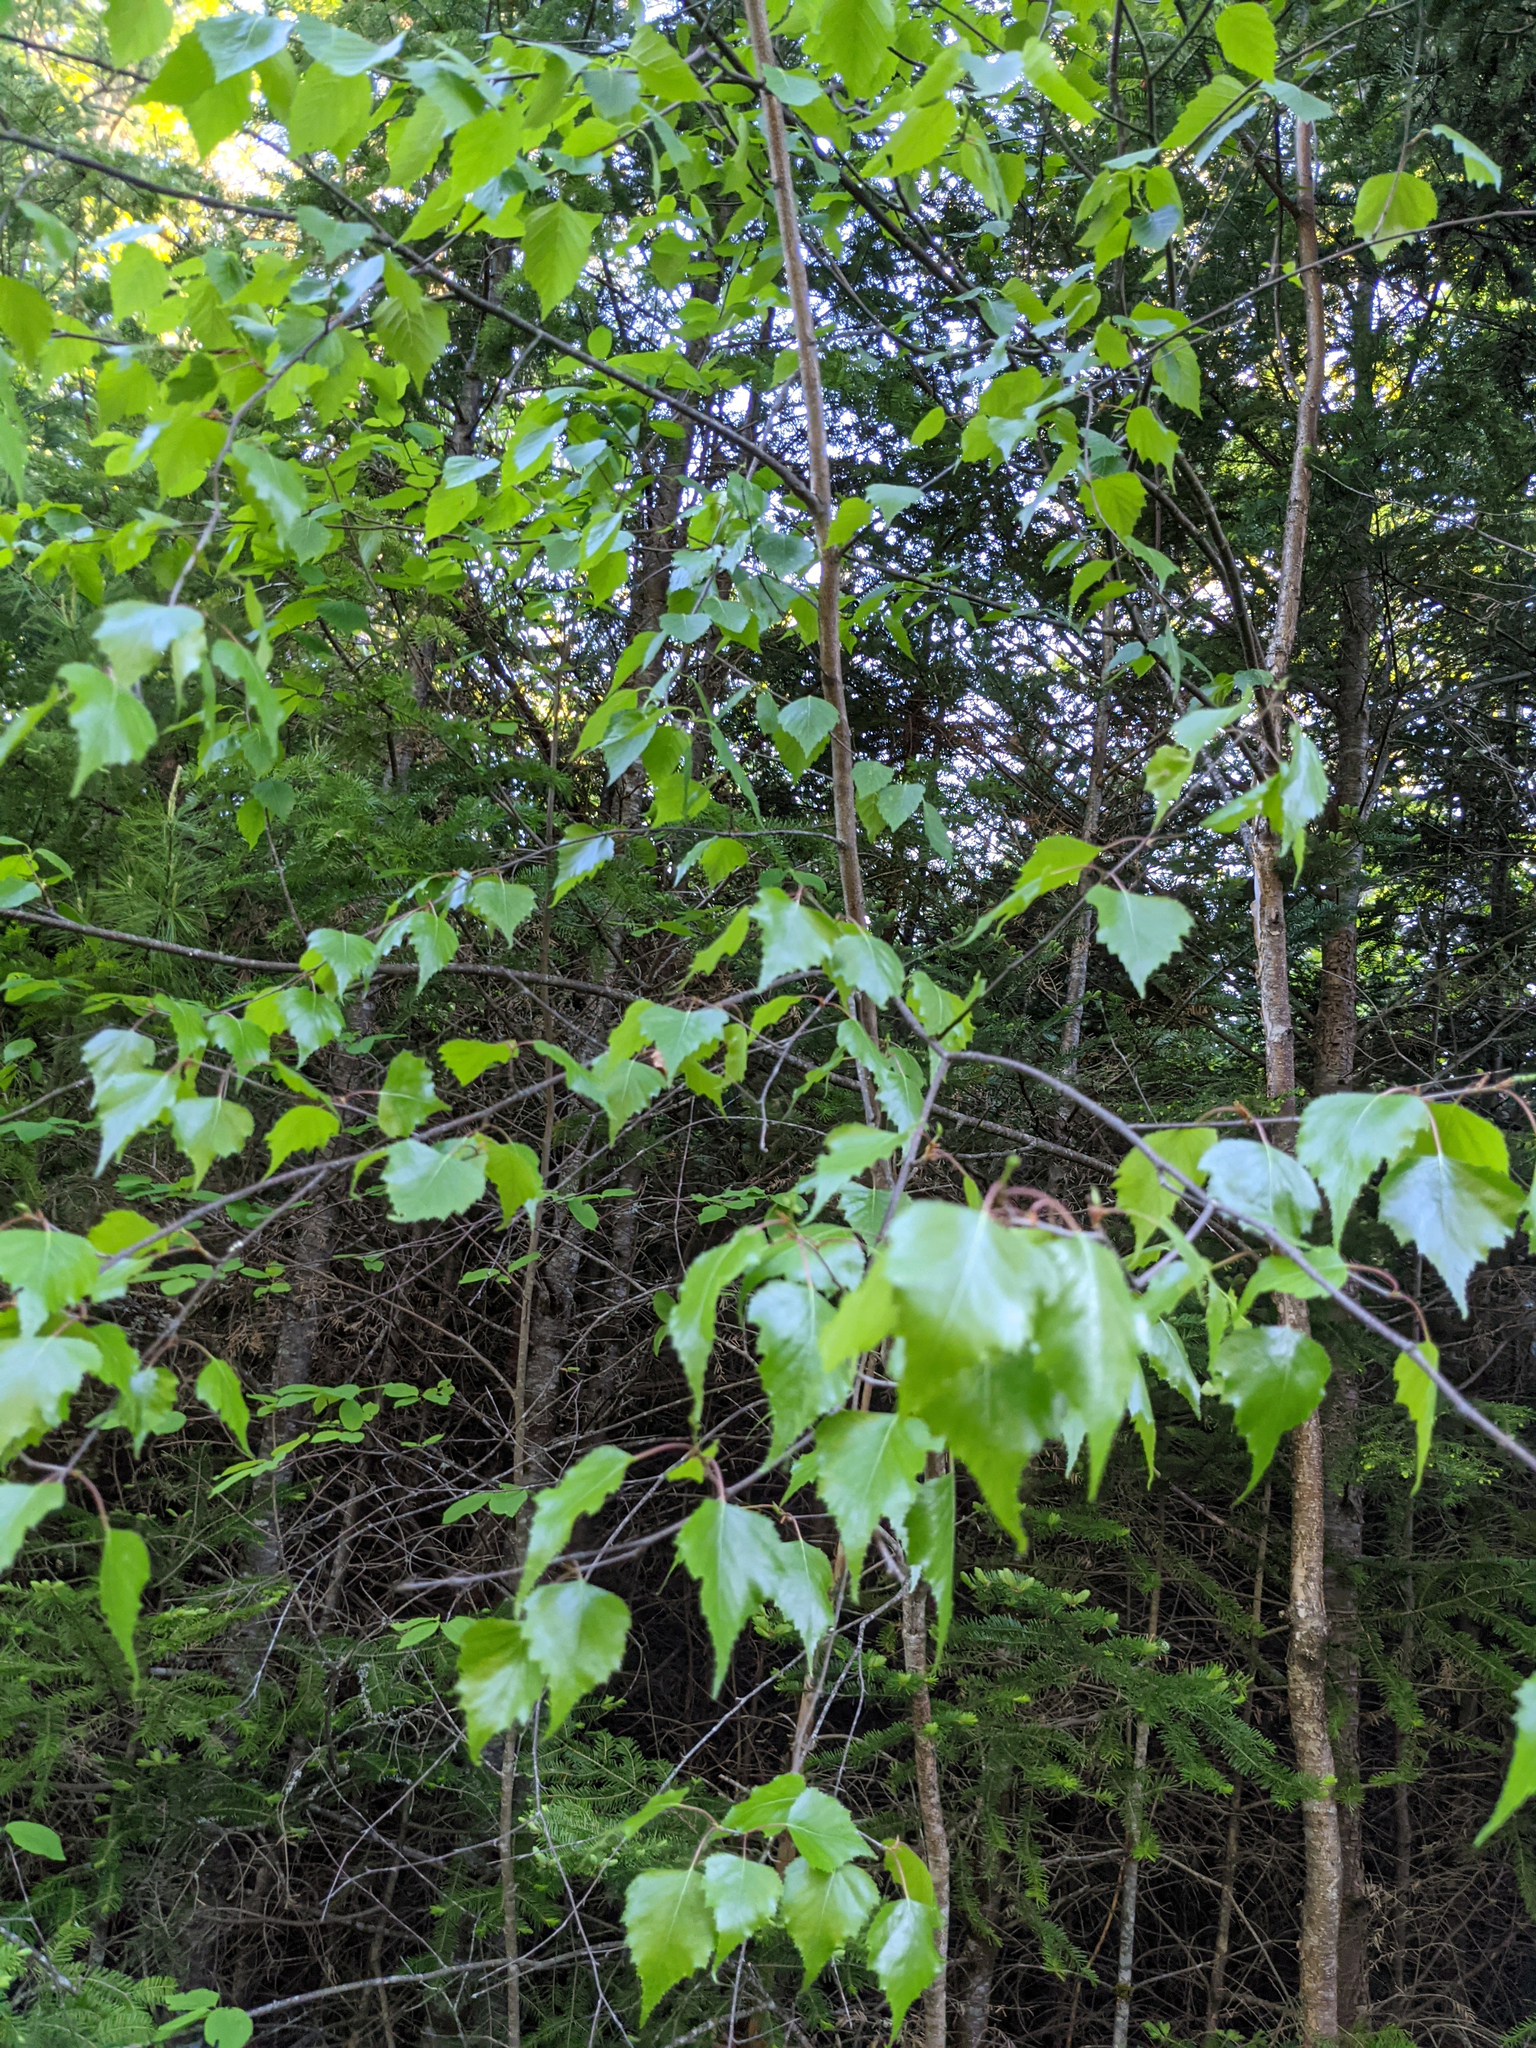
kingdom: Plantae
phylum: Tracheophyta
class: Magnoliopsida
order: Fagales
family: Betulaceae
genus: Betula
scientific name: Betula populifolia
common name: Fire birch
